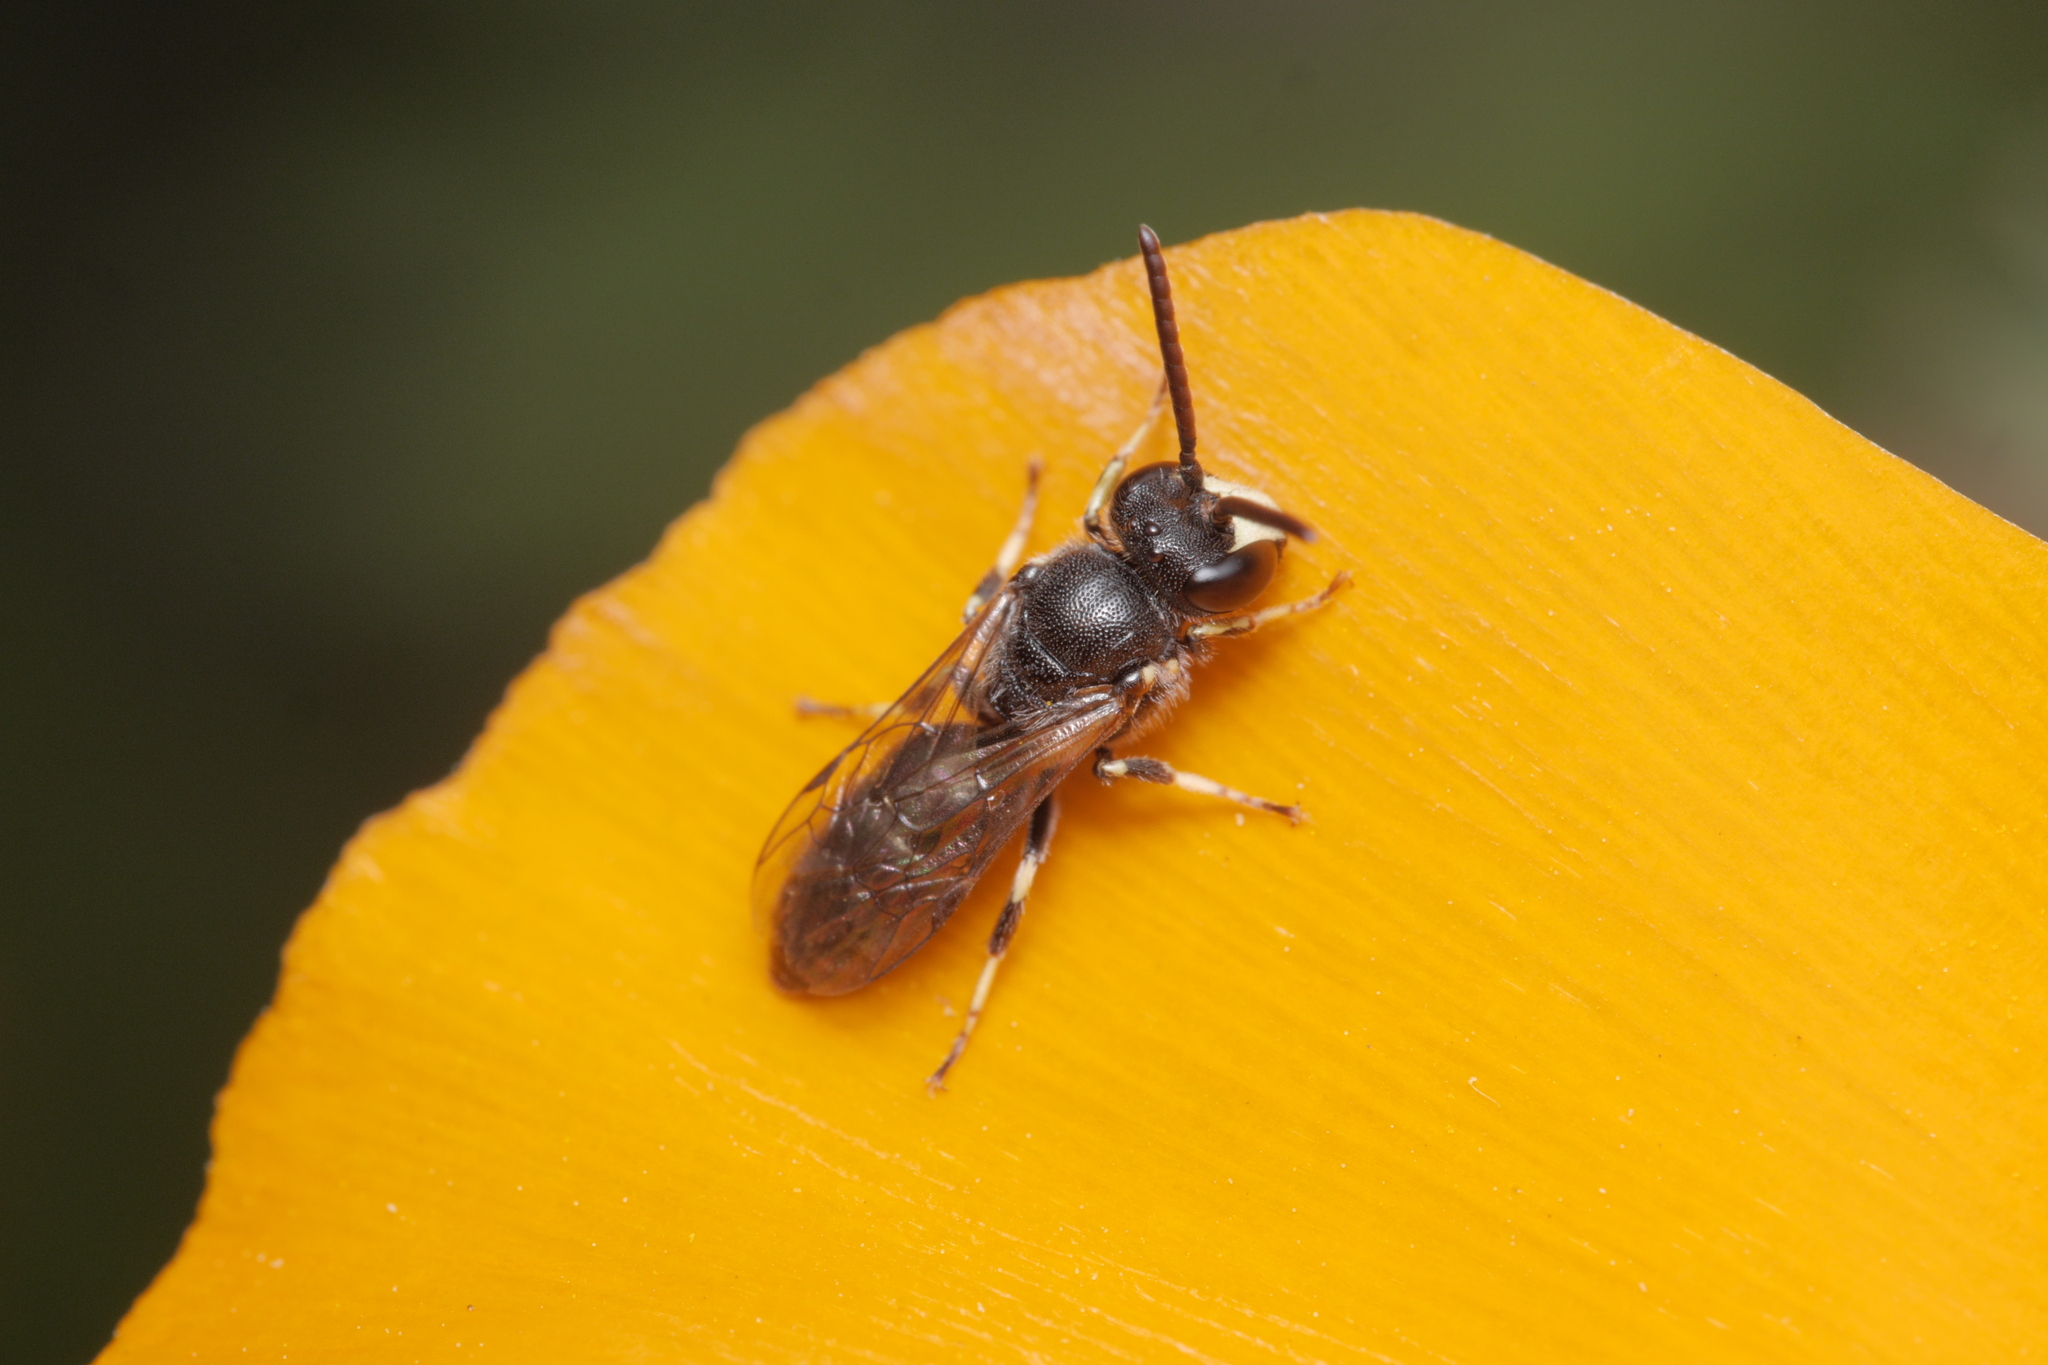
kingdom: Animalia
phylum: Arthropoda
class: Insecta
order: Hymenoptera
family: Colletidae
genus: Hylaeus
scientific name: Hylaeus hyalinatus
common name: Hyaline masked bee
